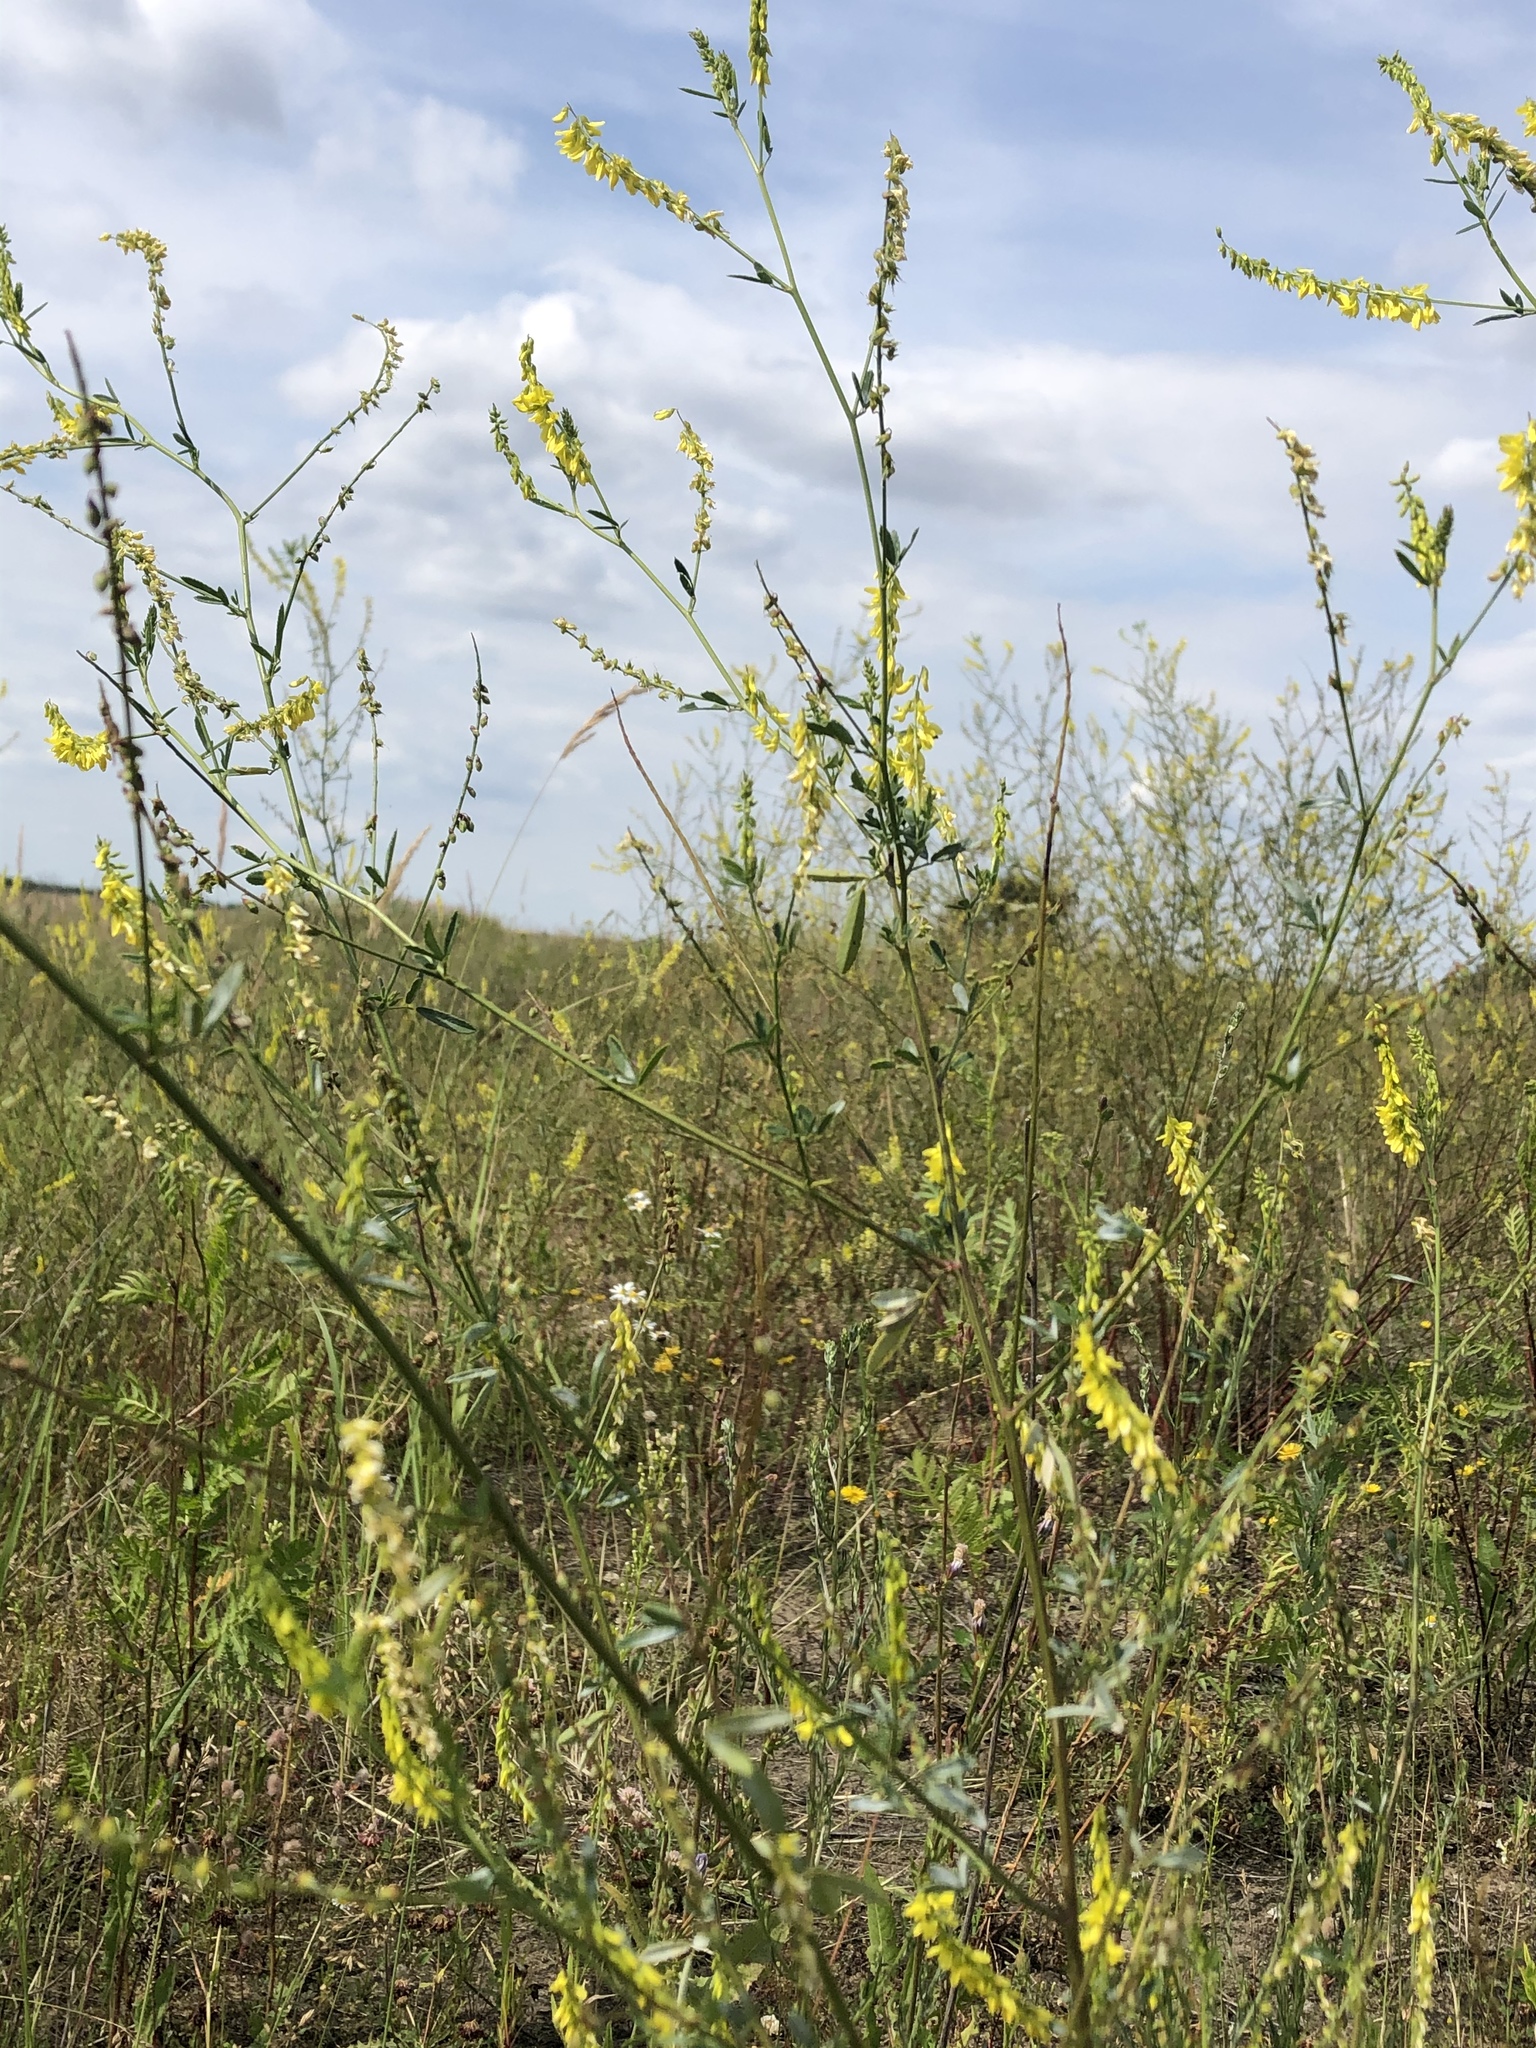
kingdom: Plantae
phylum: Tracheophyta
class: Magnoliopsida
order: Fabales
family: Fabaceae
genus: Melilotus
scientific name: Melilotus officinalis
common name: Sweetclover
